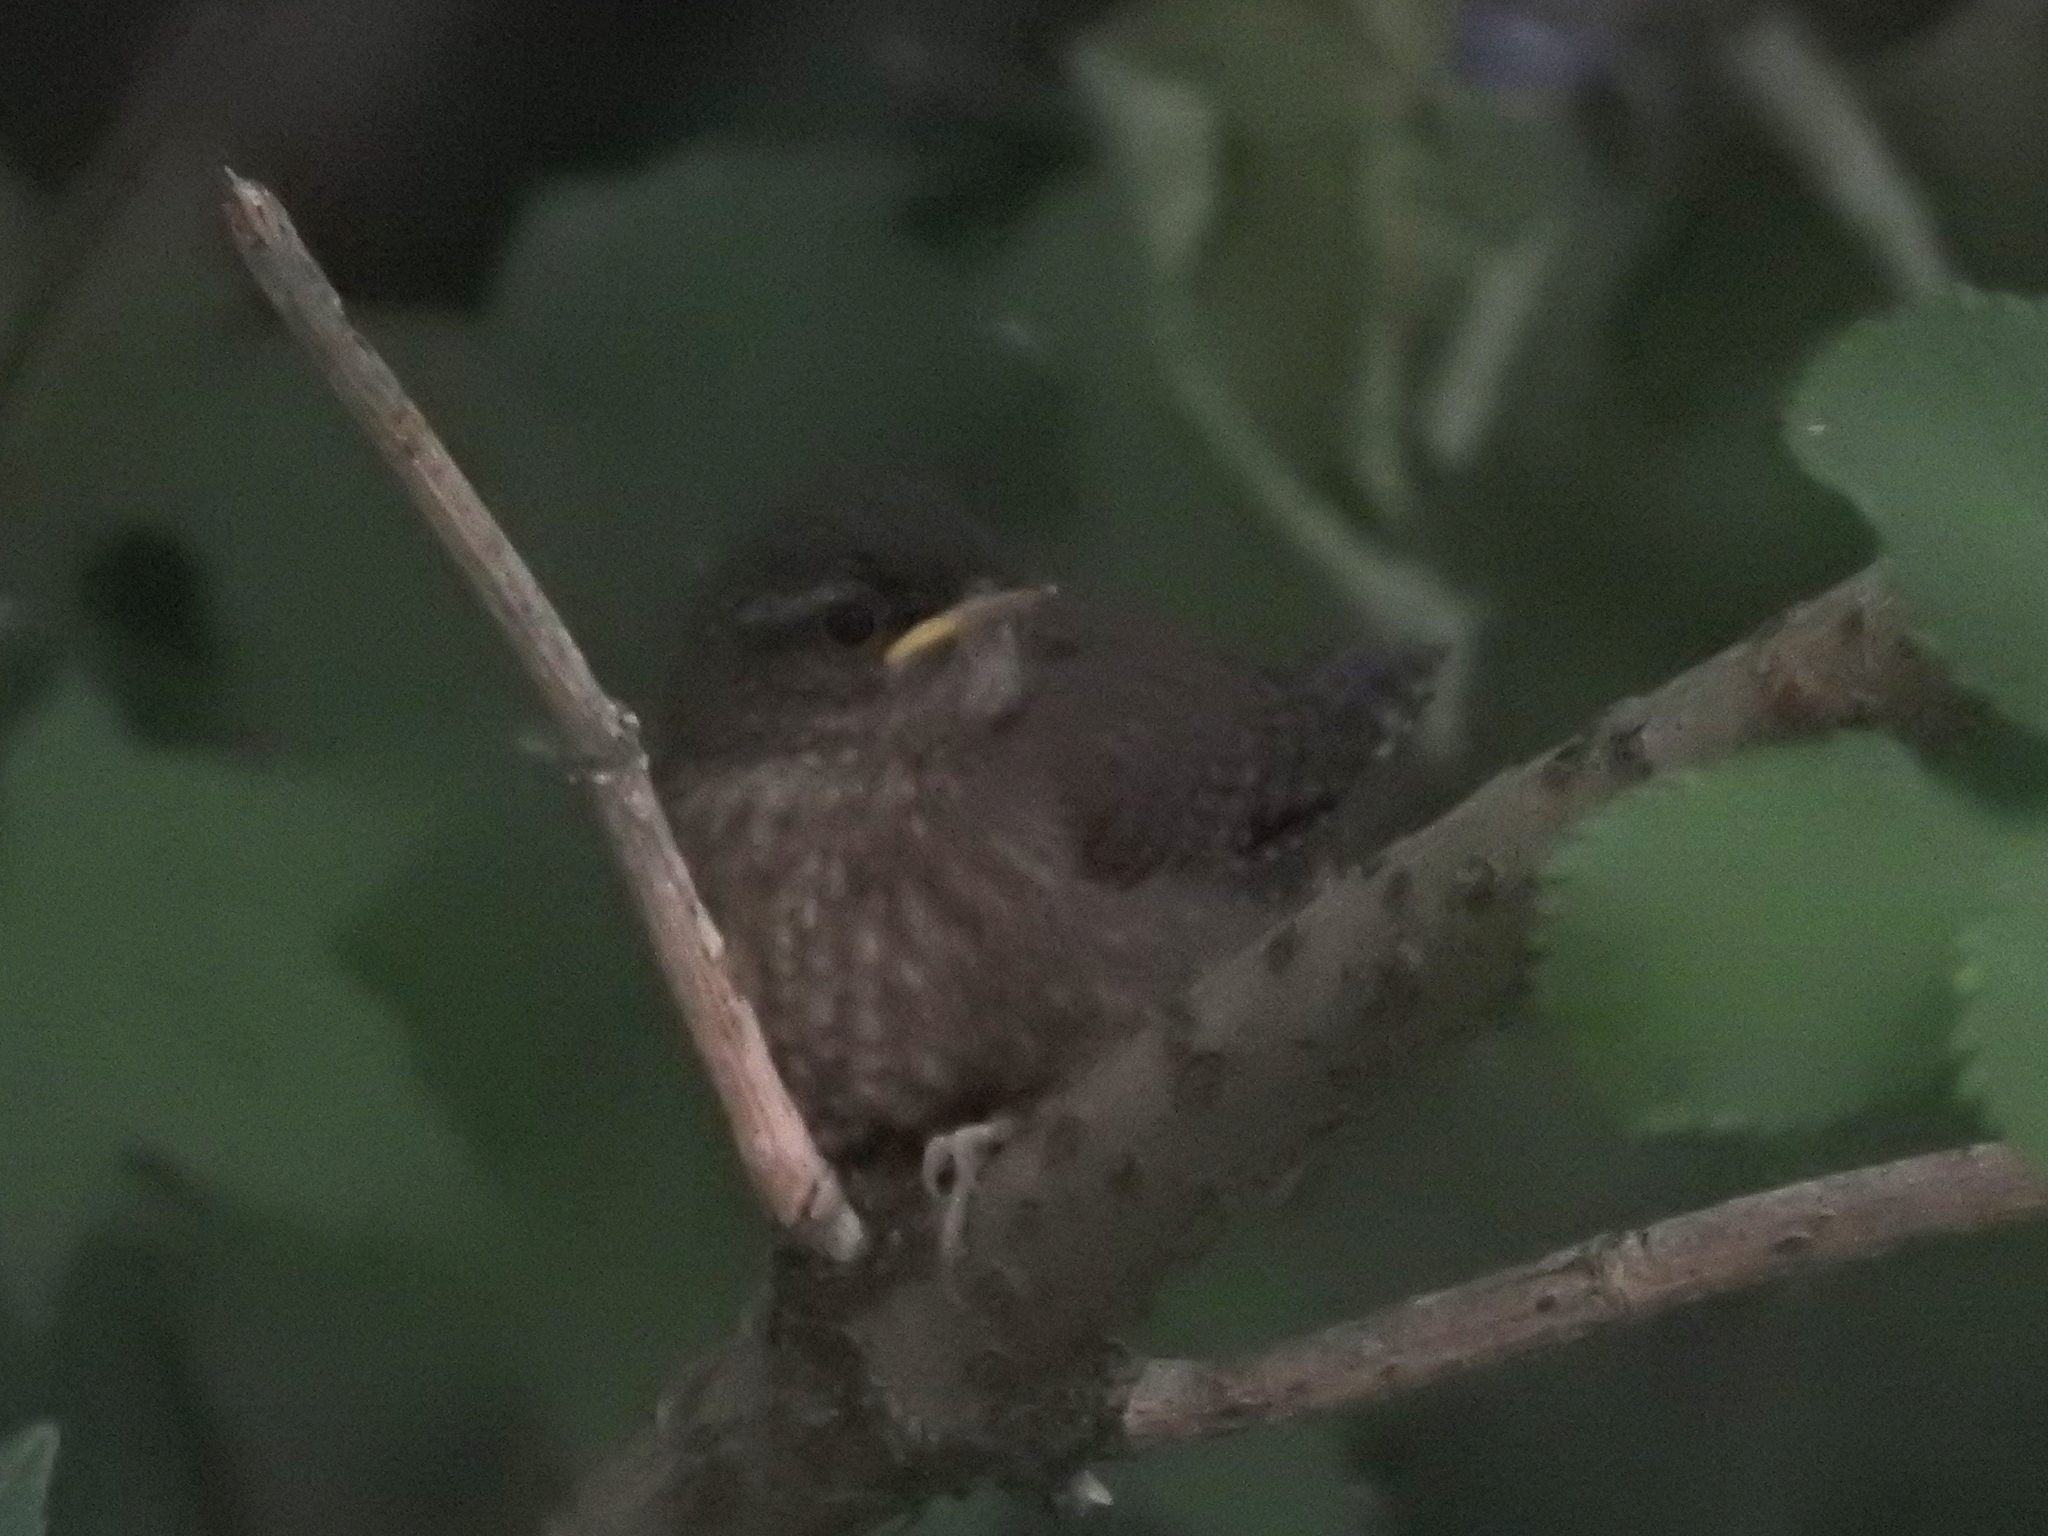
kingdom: Animalia
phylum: Chordata
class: Aves
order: Passeriformes
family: Troglodytidae
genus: Troglodytes
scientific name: Troglodytes troglodytes
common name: Eurasian wren
